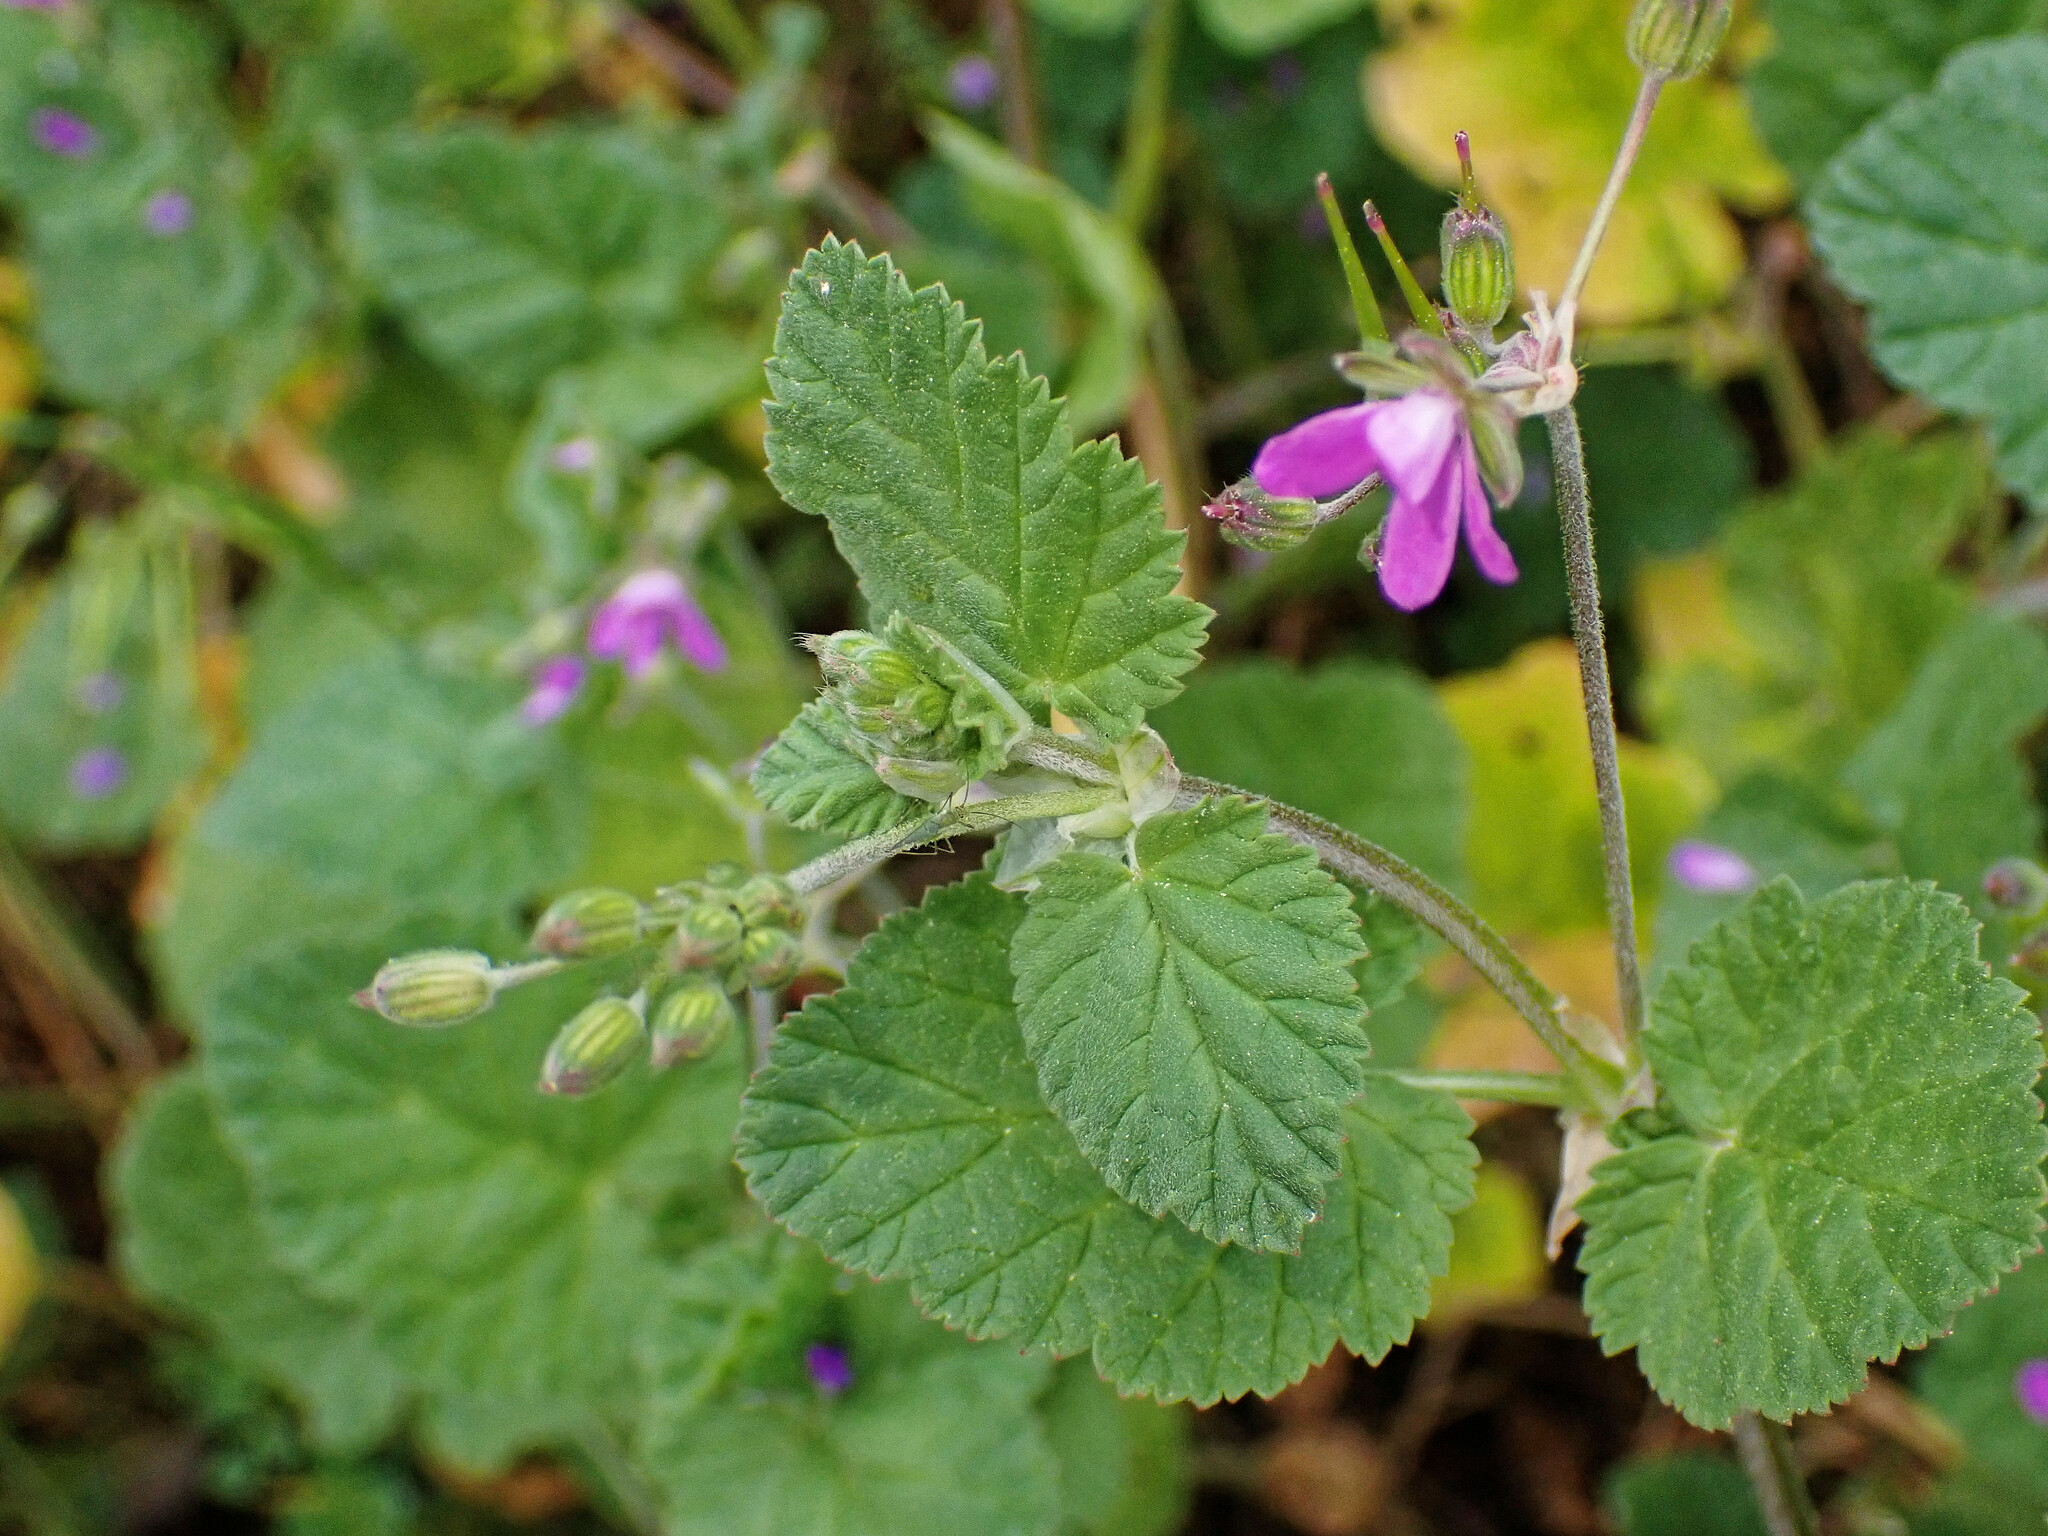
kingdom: Plantae
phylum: Tracheophyta
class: Magnoliopsida
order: Geraniales
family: Geraniaceae
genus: Erodium
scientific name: Erodium malacoides
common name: Soft stork's-bill
